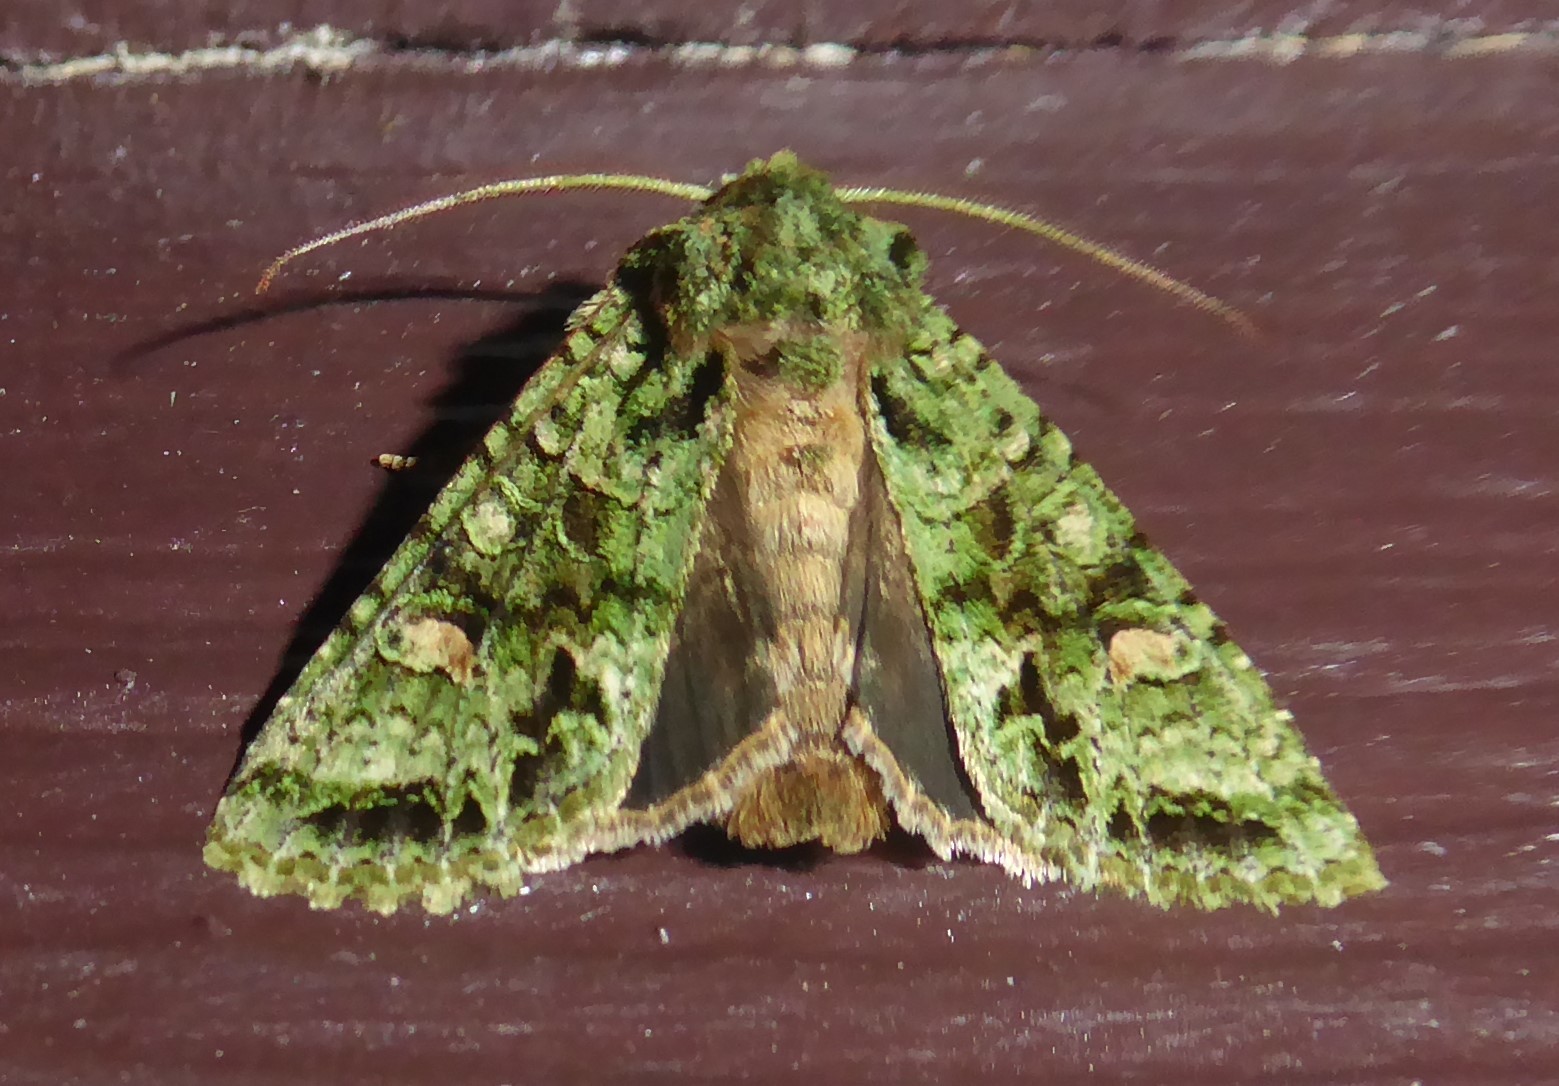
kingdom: Animalia
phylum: Arthropoda
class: Insecta
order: Lepidoptera
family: Noctuidae
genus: Ichneutica
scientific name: Ichneutica
